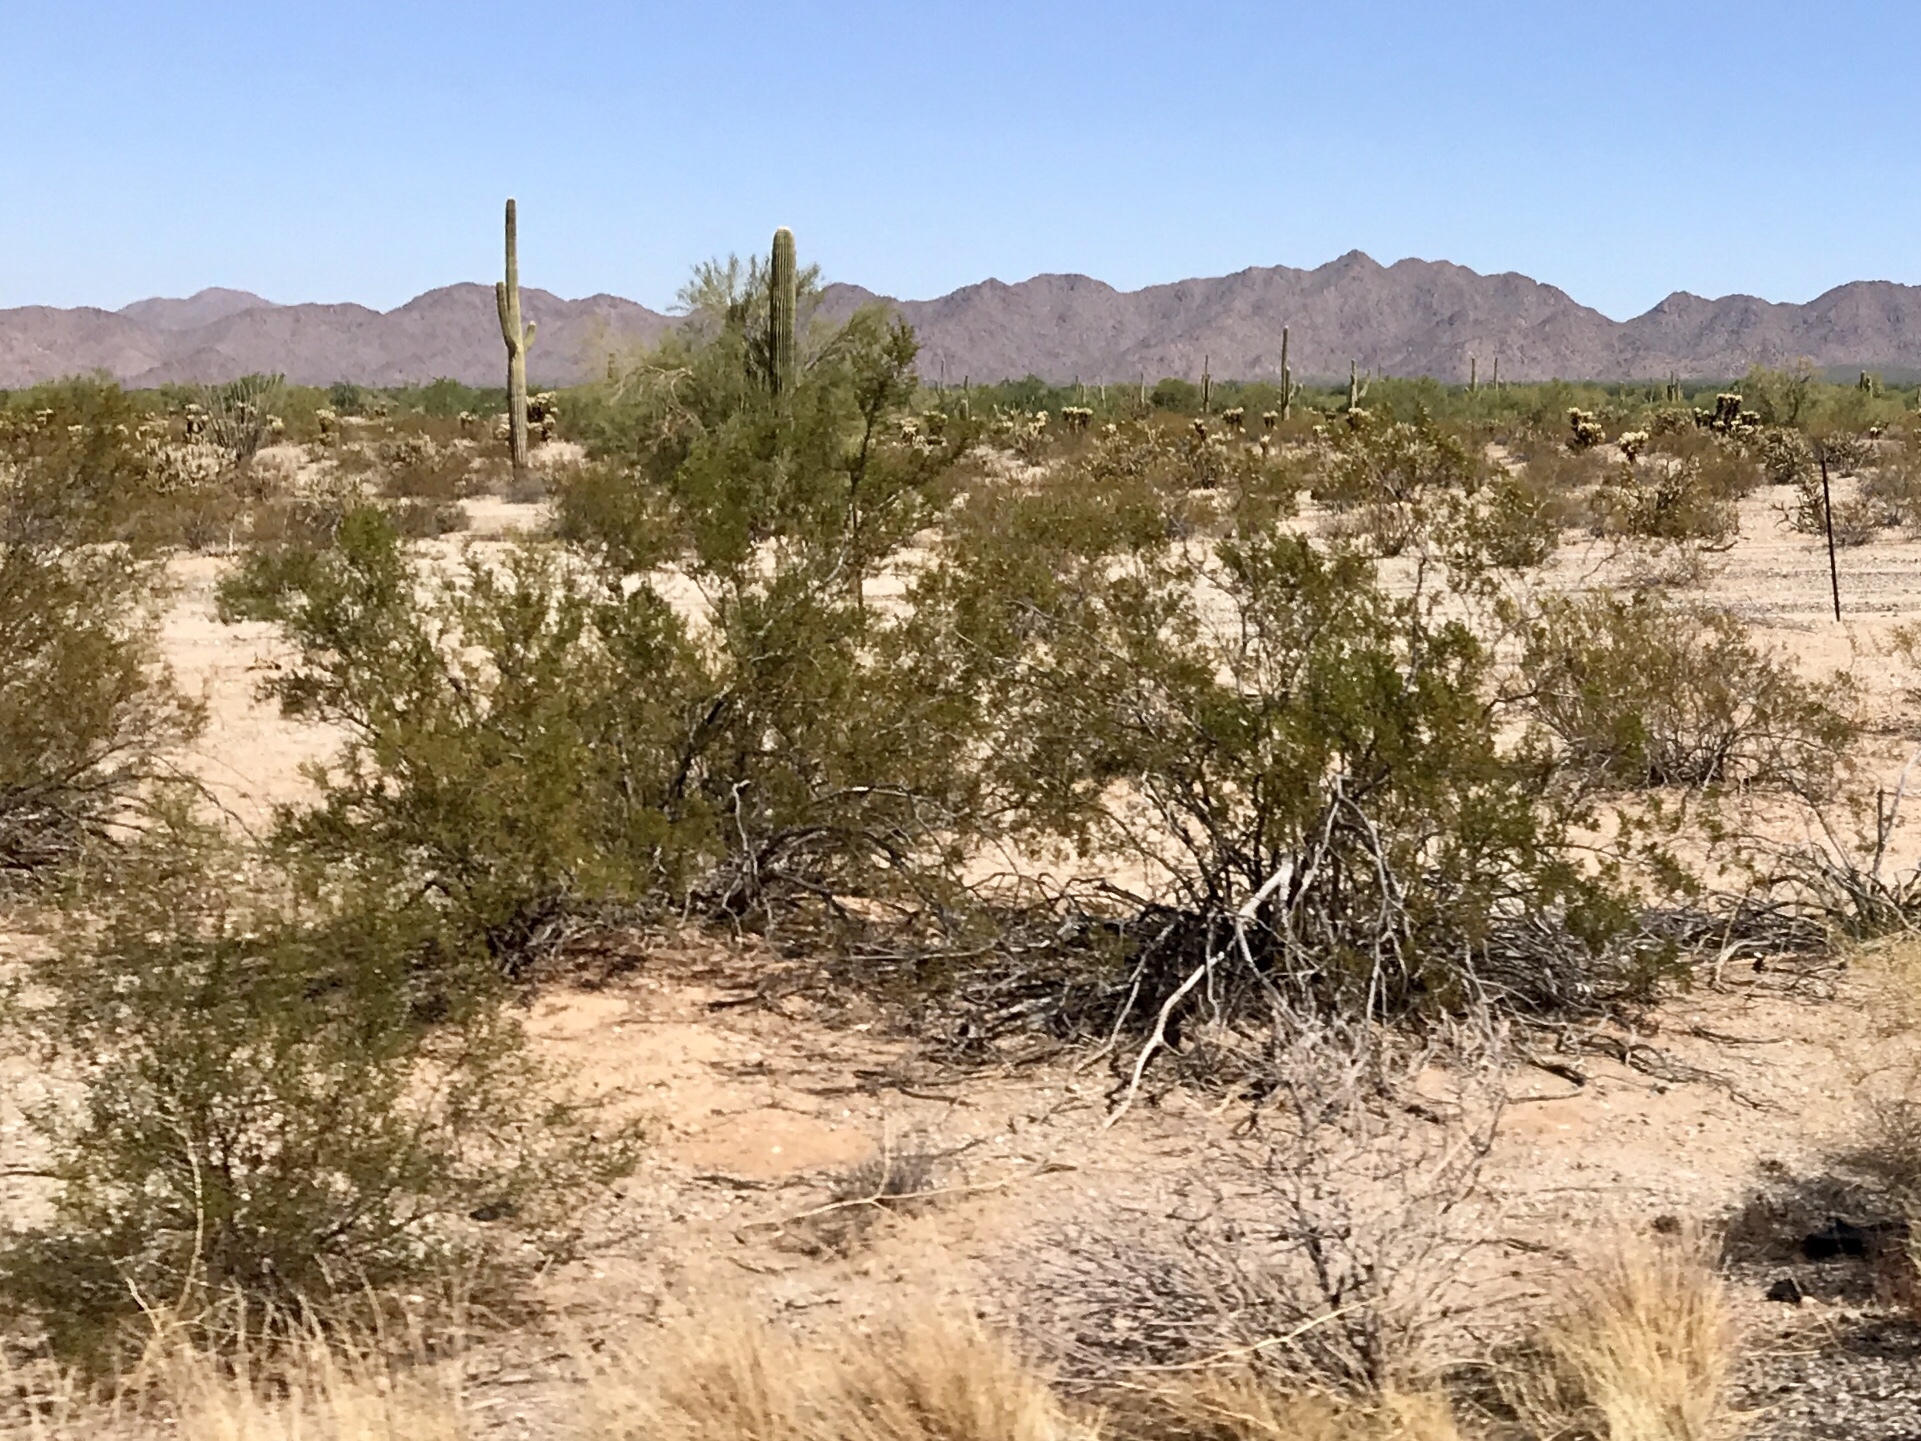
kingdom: Plantae
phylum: Tracheophyta
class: Magnoliopsida
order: Zygophyllales
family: Zygophyllaceae
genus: Larrea
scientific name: Larrea tridentata
